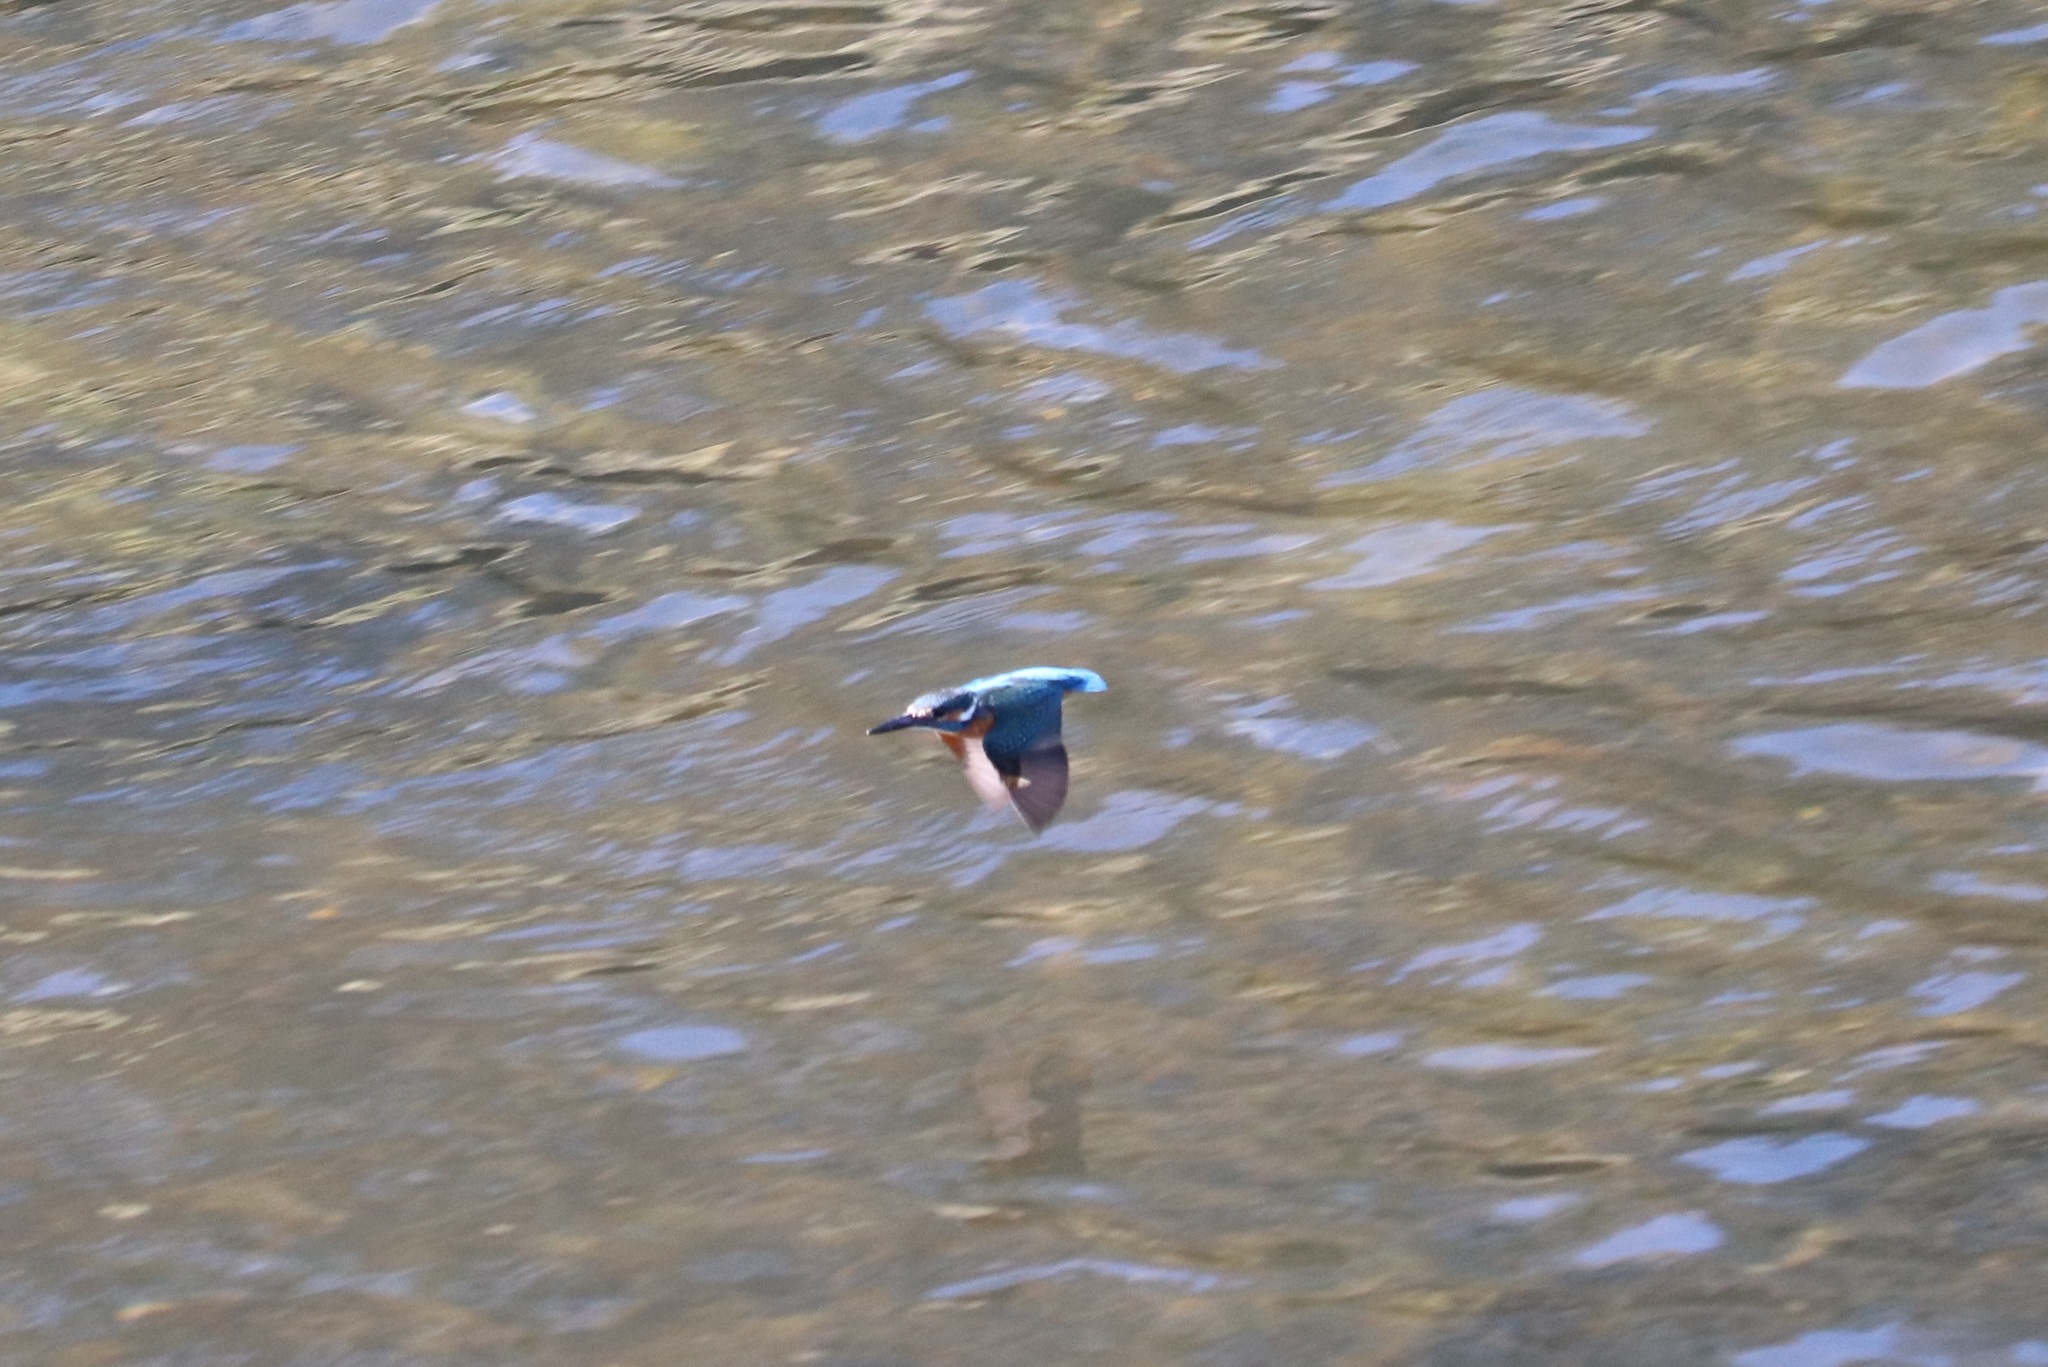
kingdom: Animalia
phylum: Chordata
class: Aves
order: Coraciiformes
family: Alcedinidae
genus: Alcedo
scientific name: Alcedo atthis
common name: Common kingfisher
